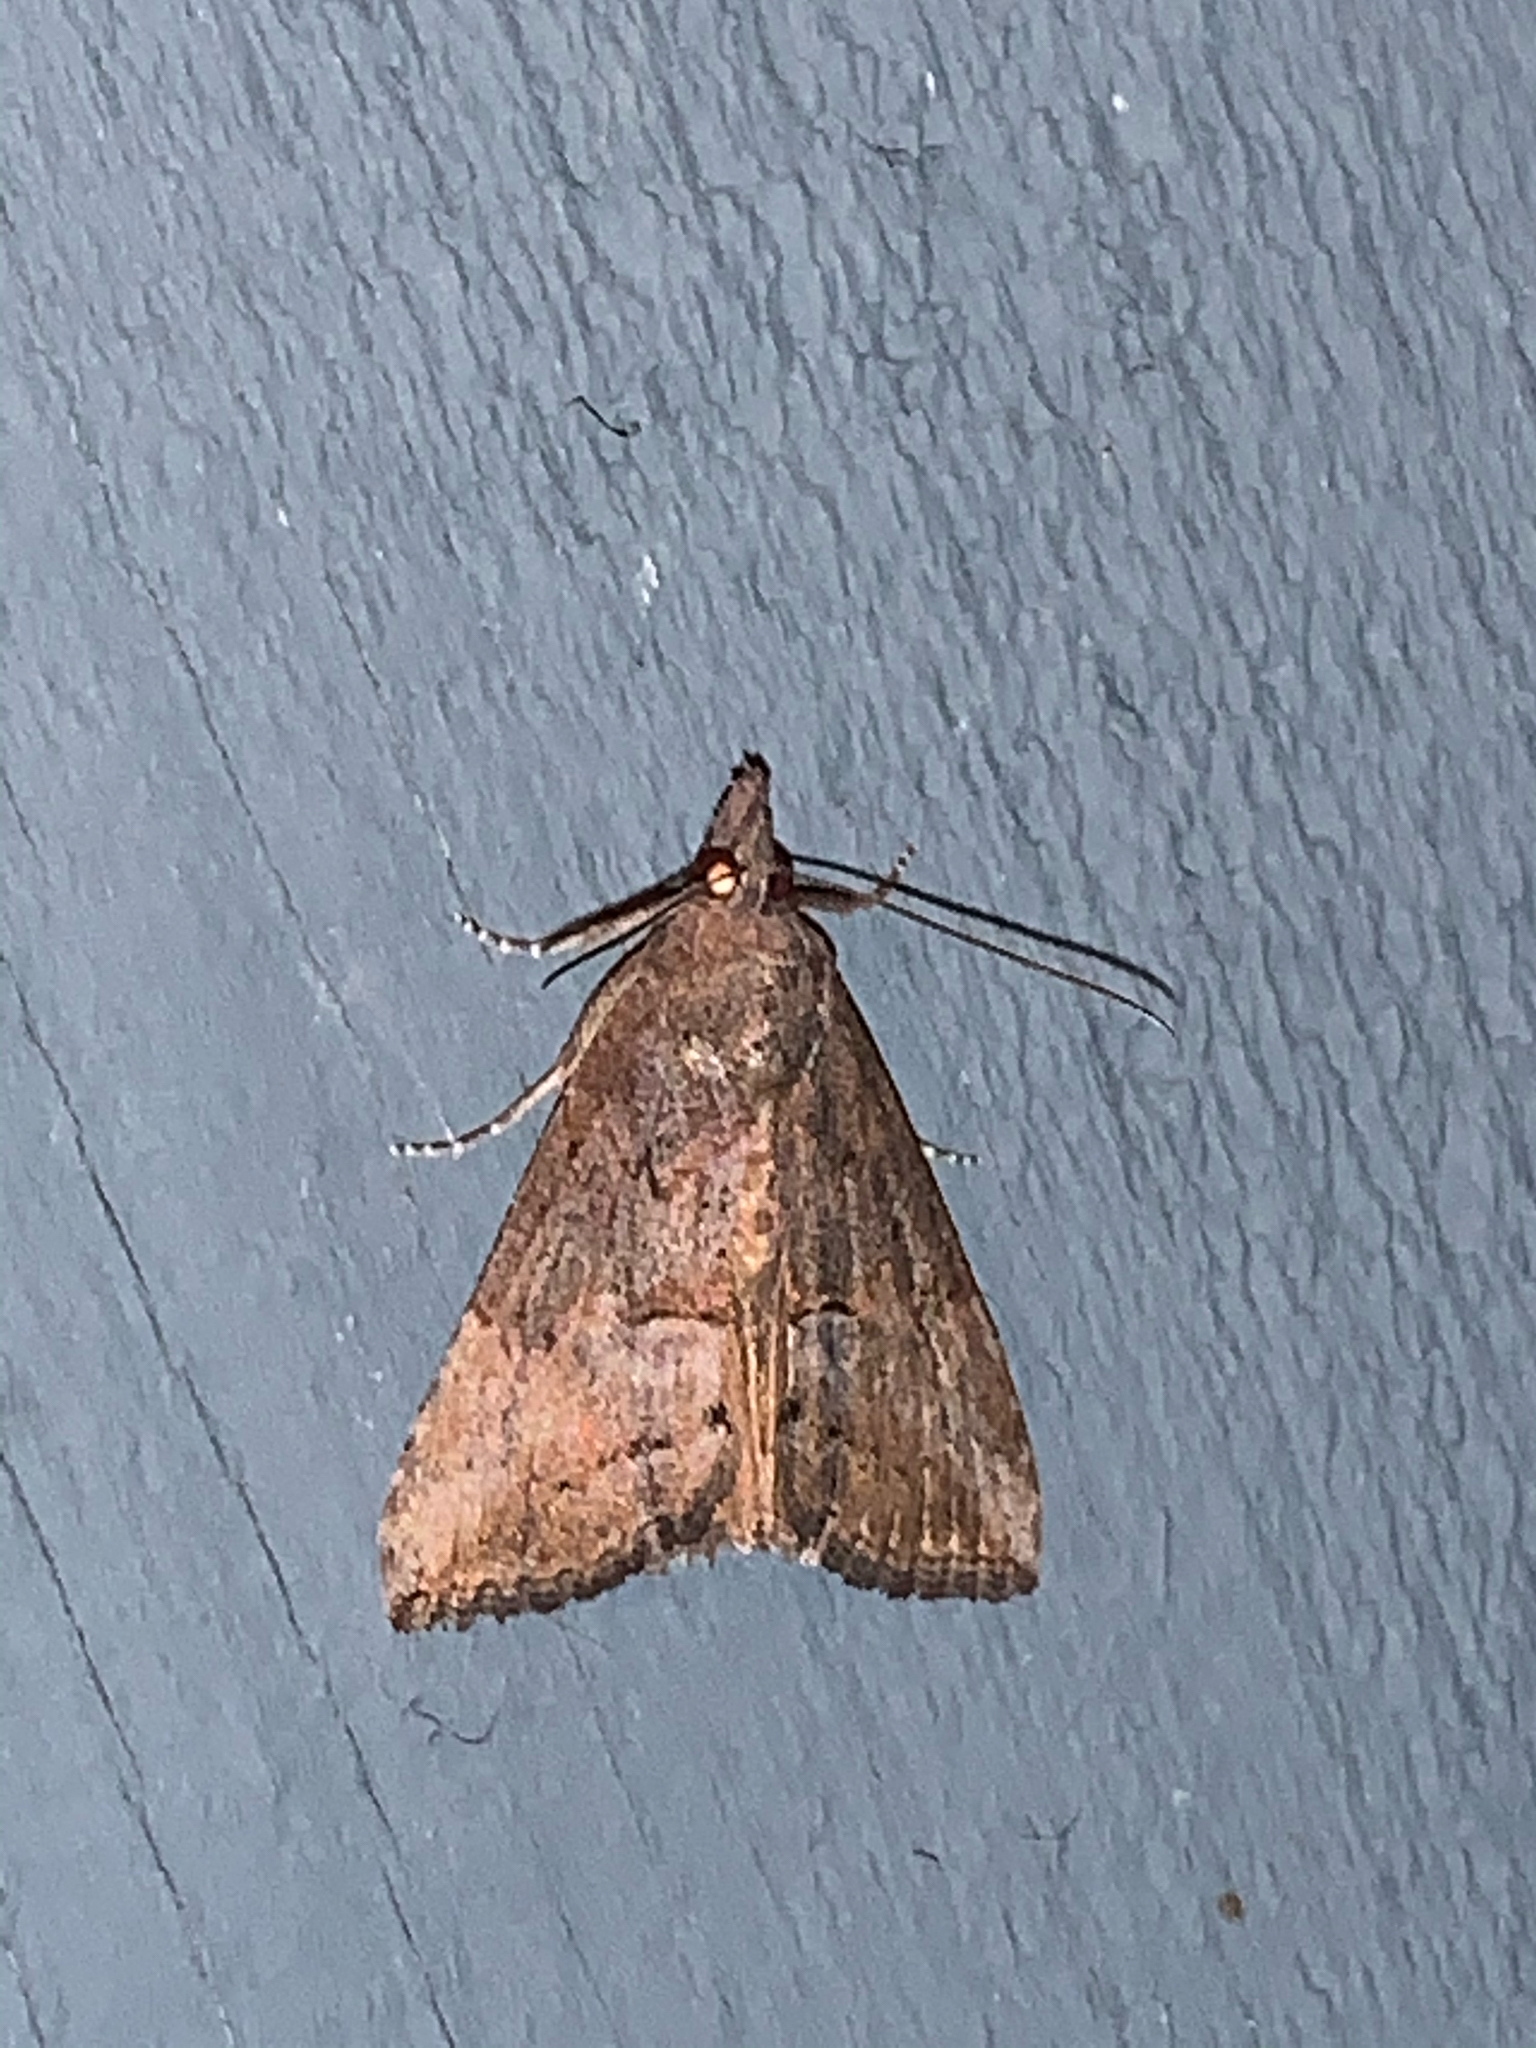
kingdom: Animalia
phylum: Arthropoda
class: Insecta
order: Lepidoptera
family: Erebidae
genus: Hypena
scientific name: Hypena scabra
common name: Green cloverworm
